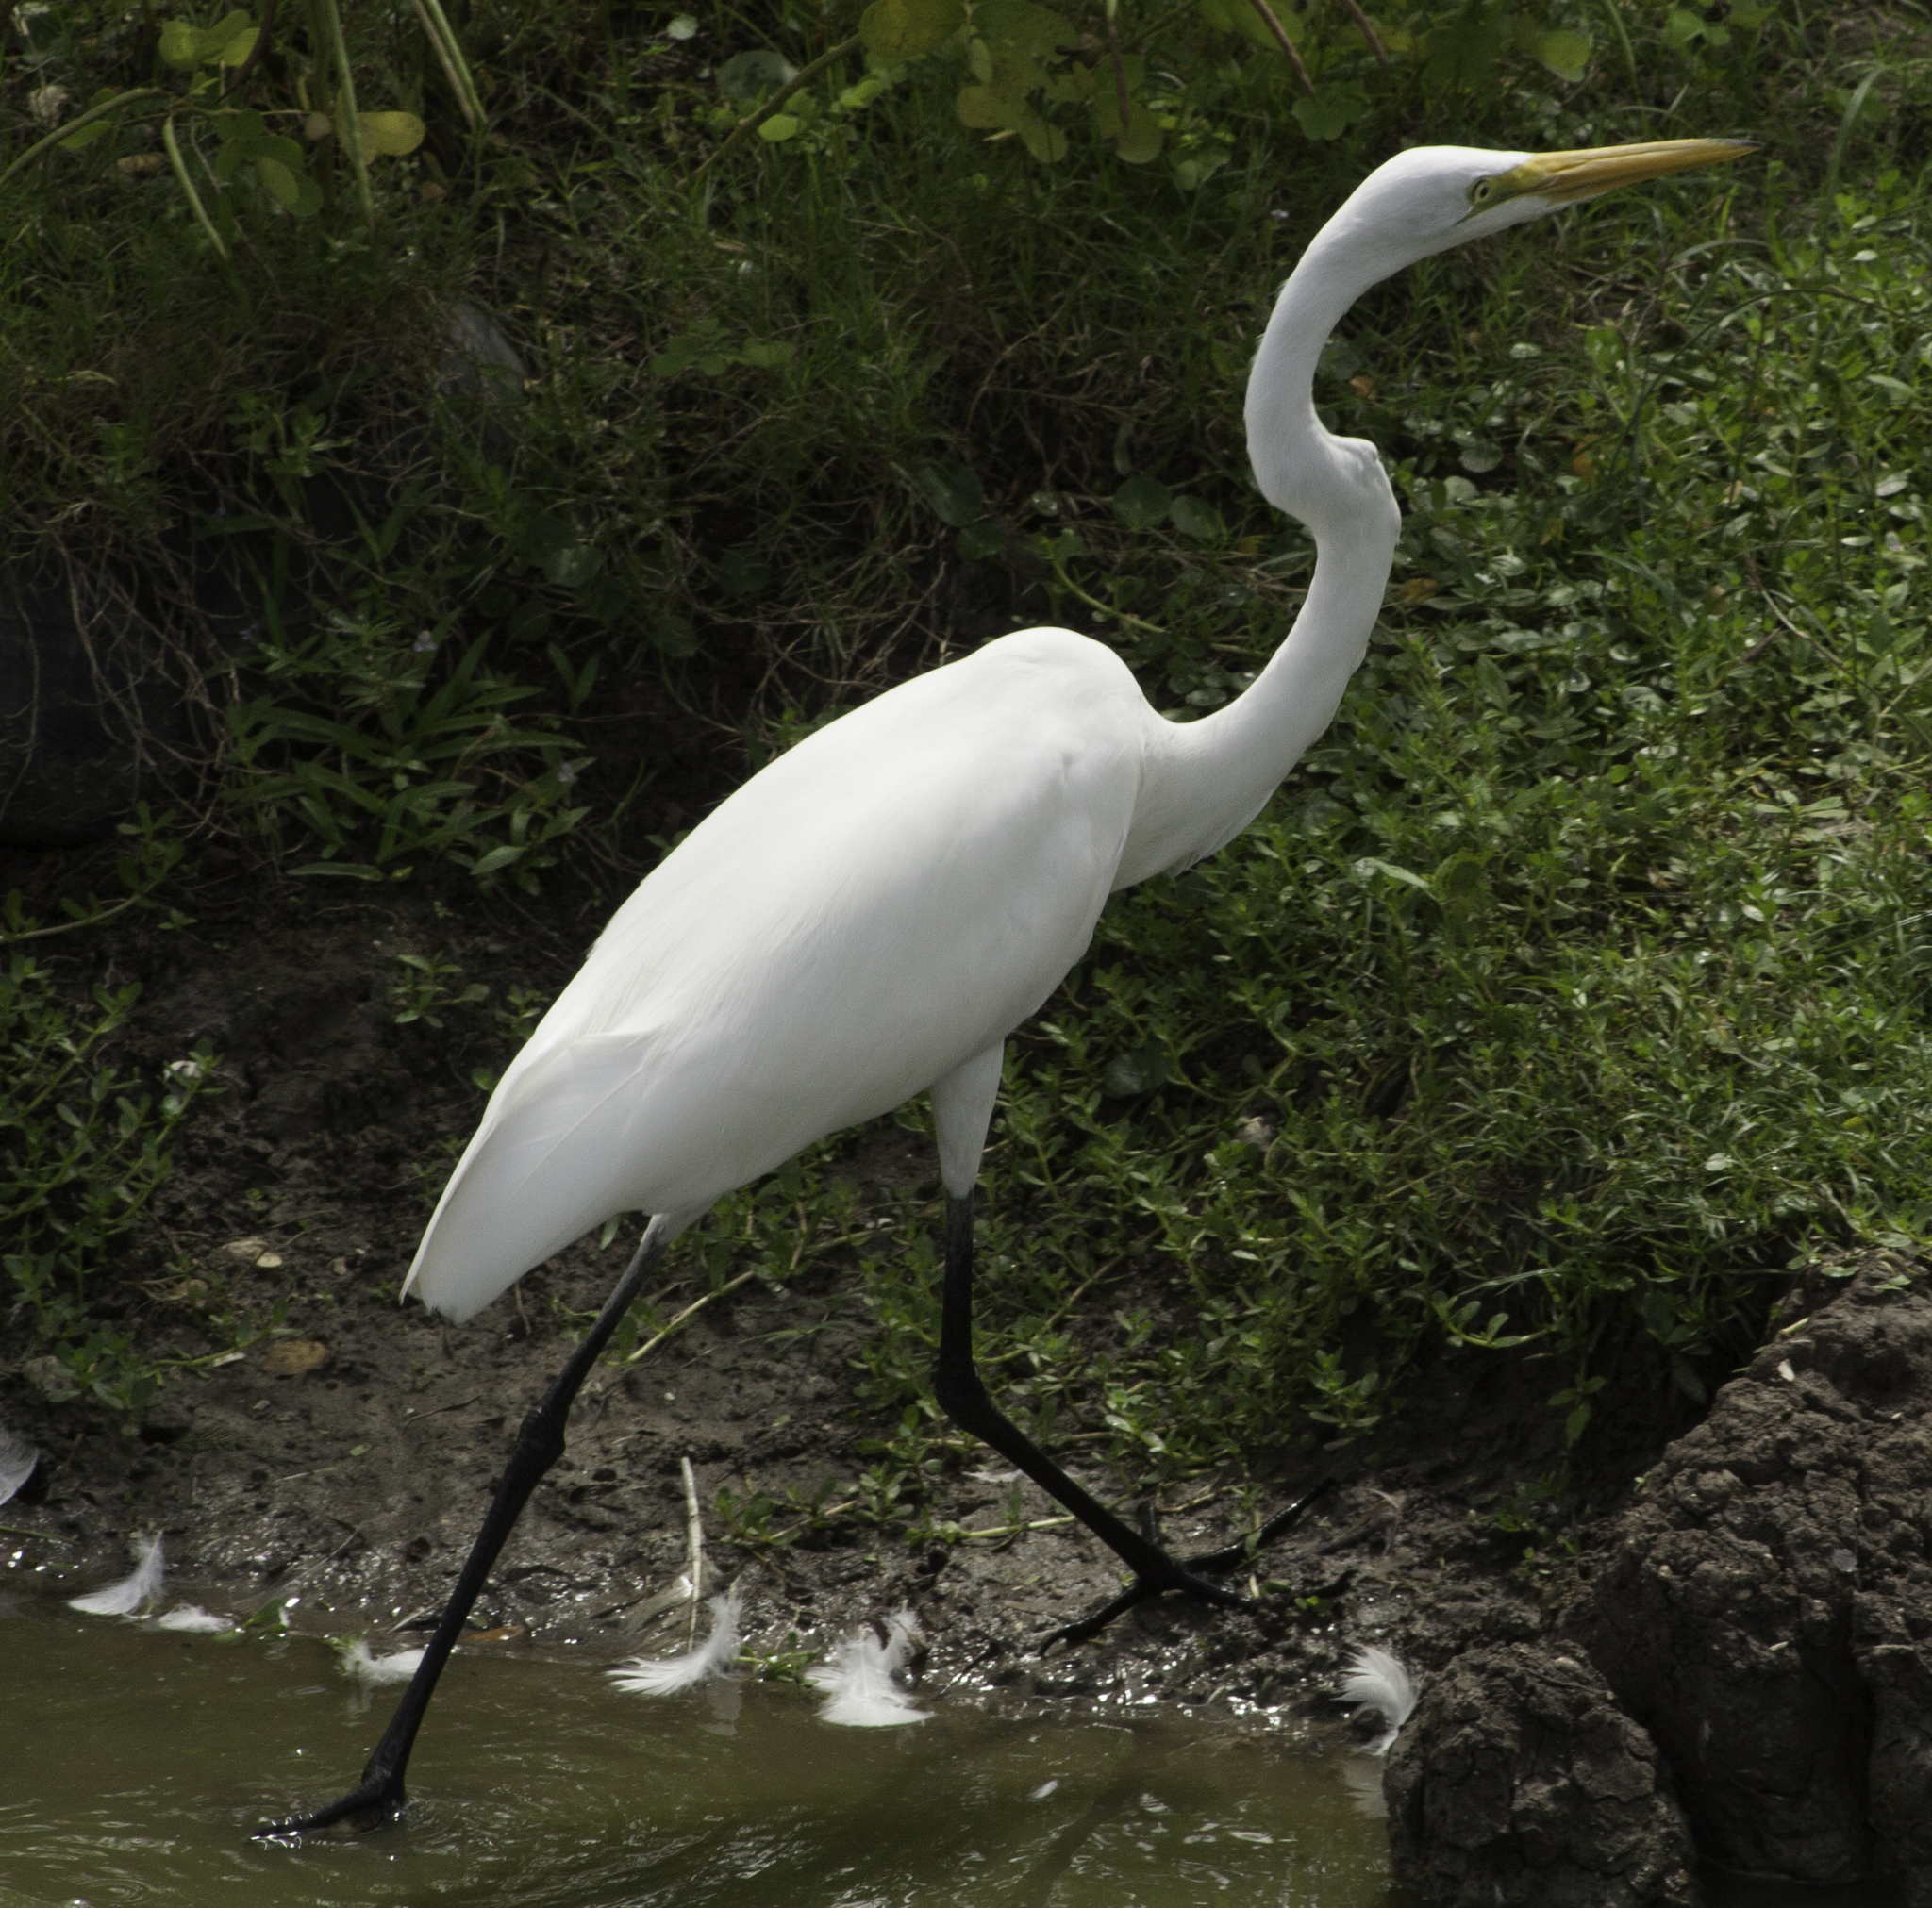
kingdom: Animalia
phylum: Chordata
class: Aves
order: Pelecaniformes
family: Ardeidae
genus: Ardea
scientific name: Ardea alba
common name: Great egret
